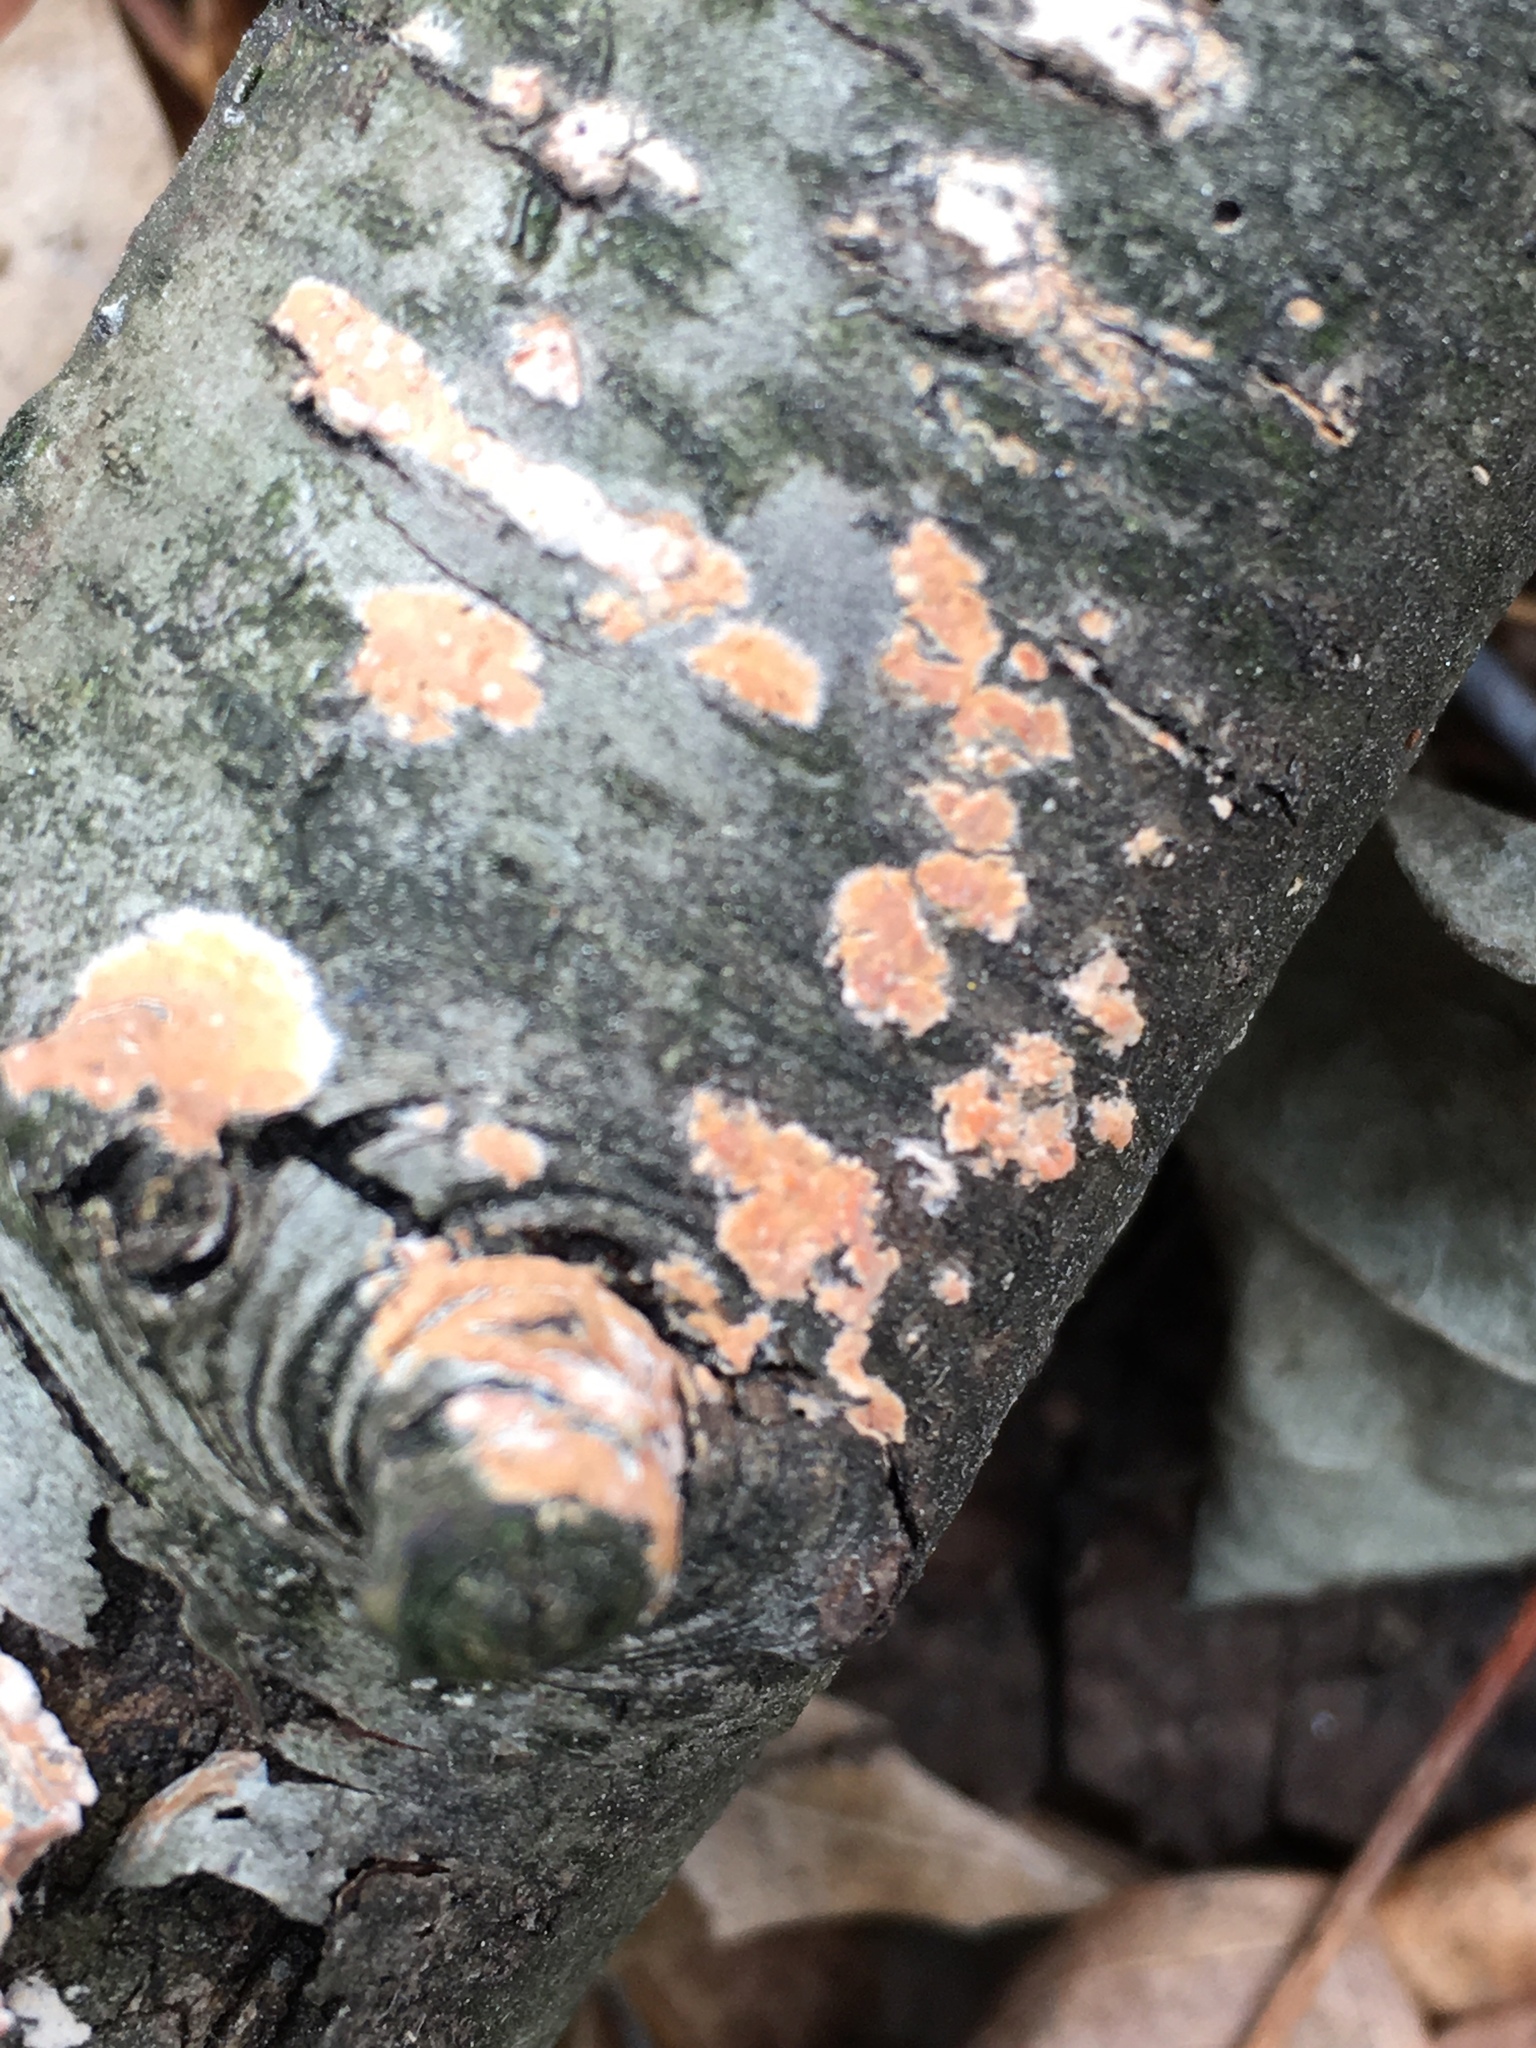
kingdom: Fungi
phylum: Basidiomycota
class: Agaricomycetes
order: Russulales
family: Peniophoraceae
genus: Peniophora
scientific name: Peniophora incarnata
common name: Rosy crust
